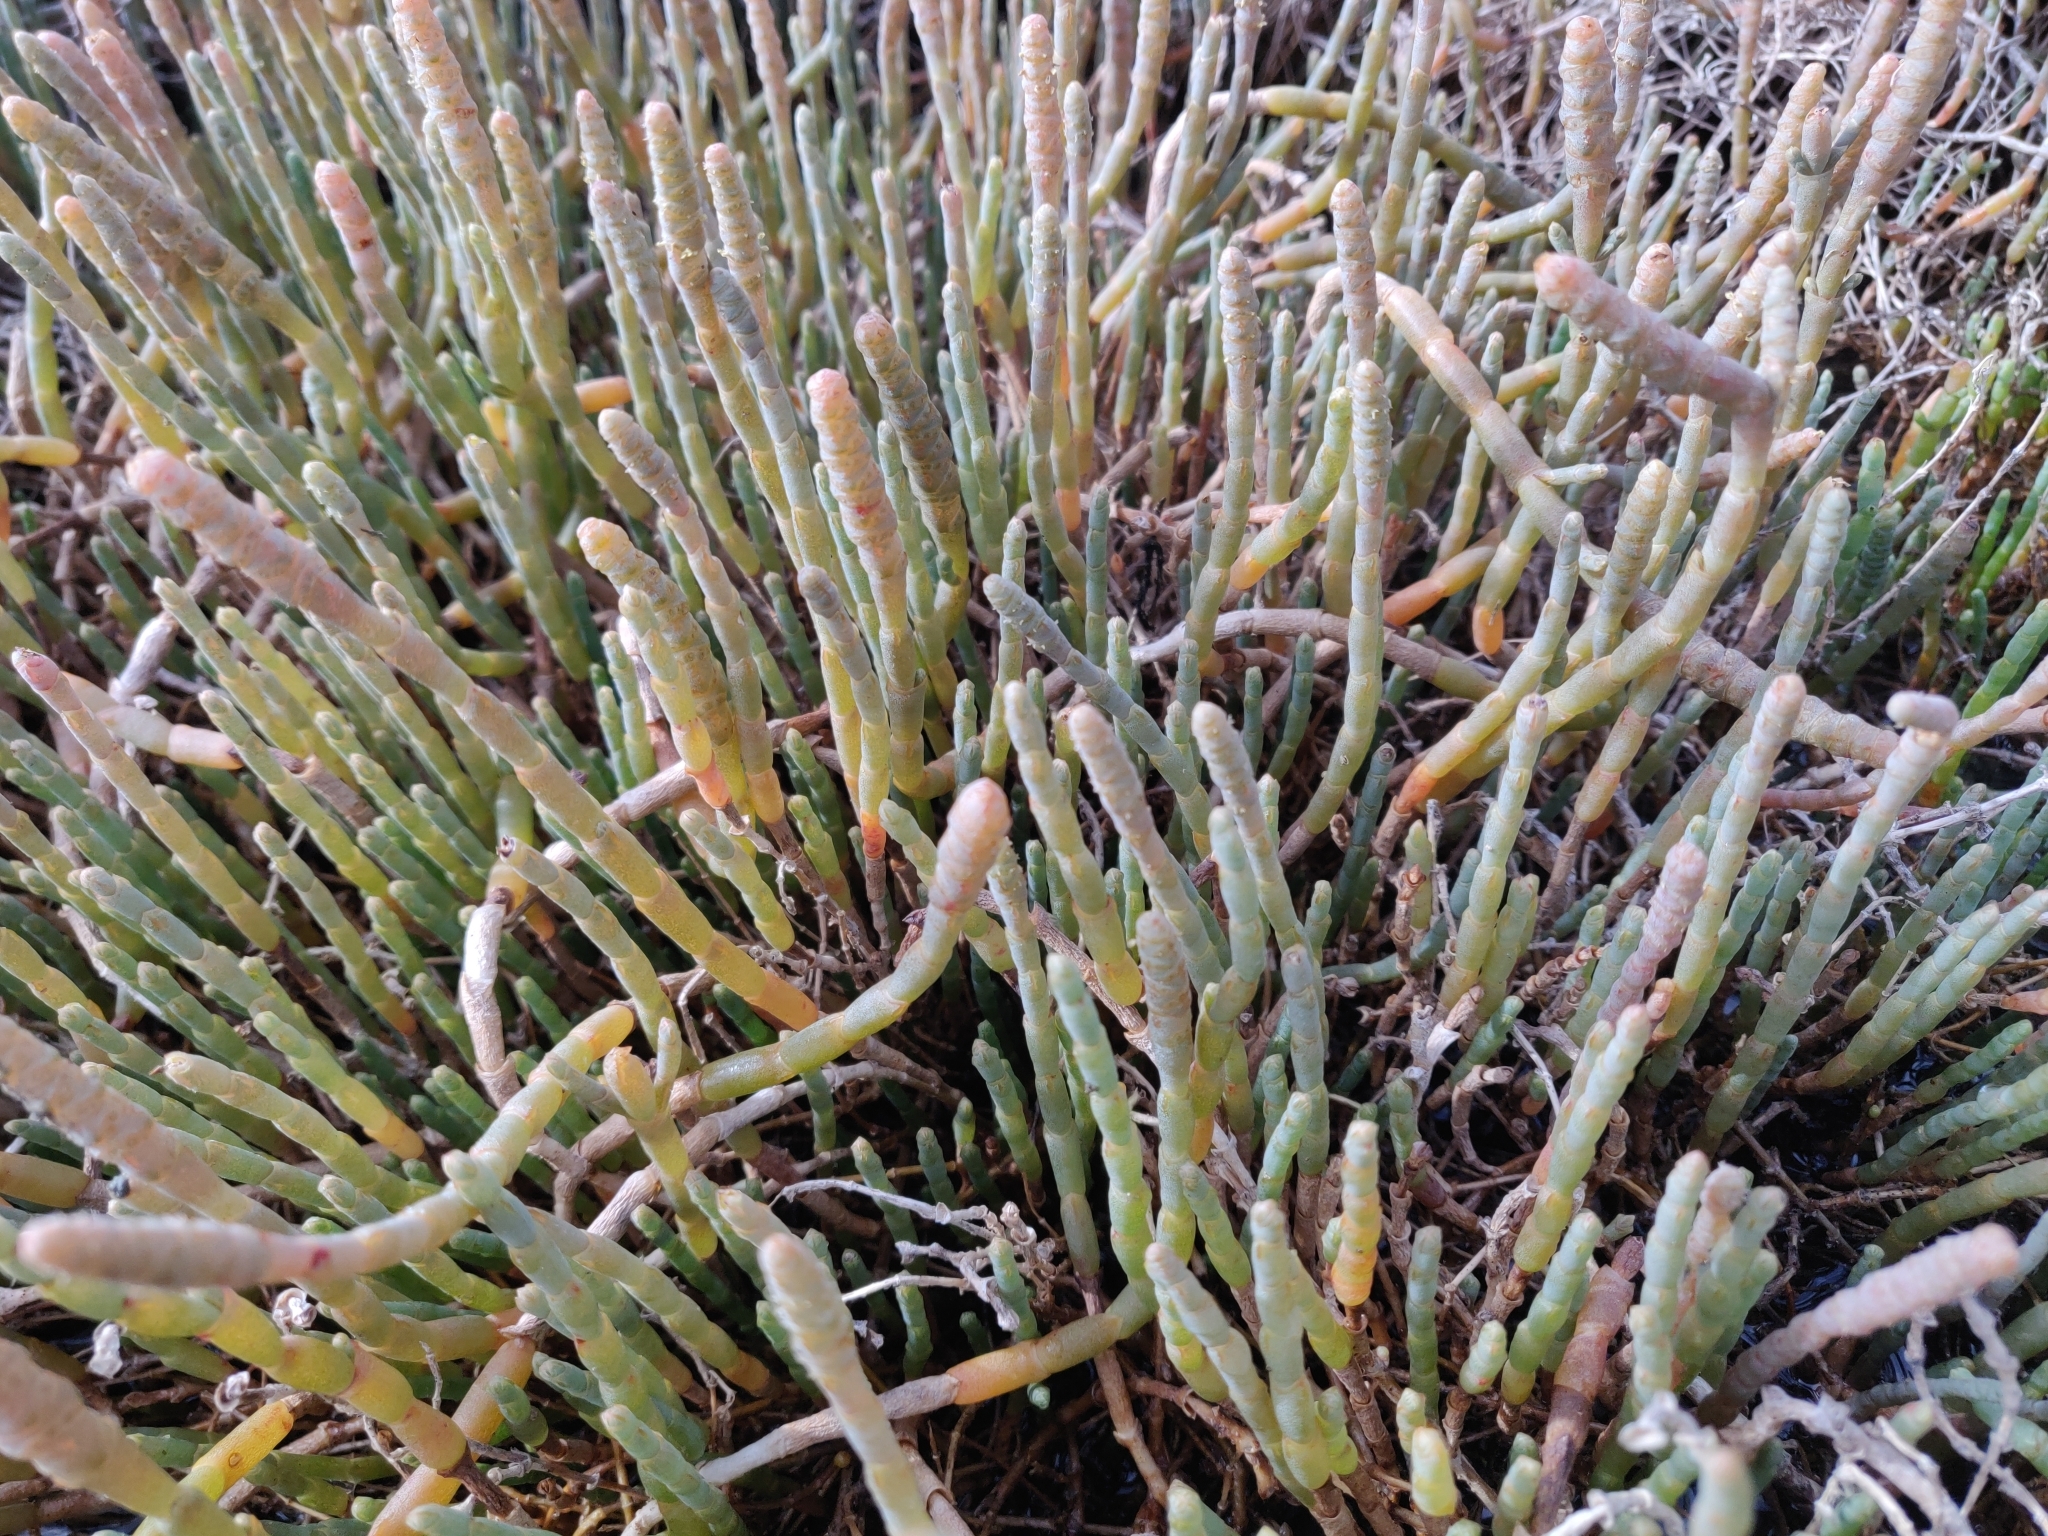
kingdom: Plantae
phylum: Tracheophyta
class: Magnoliopsida
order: Caryophyllales
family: Amaranthaceae
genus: Salicornia
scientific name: Salicornia quinqueflora
